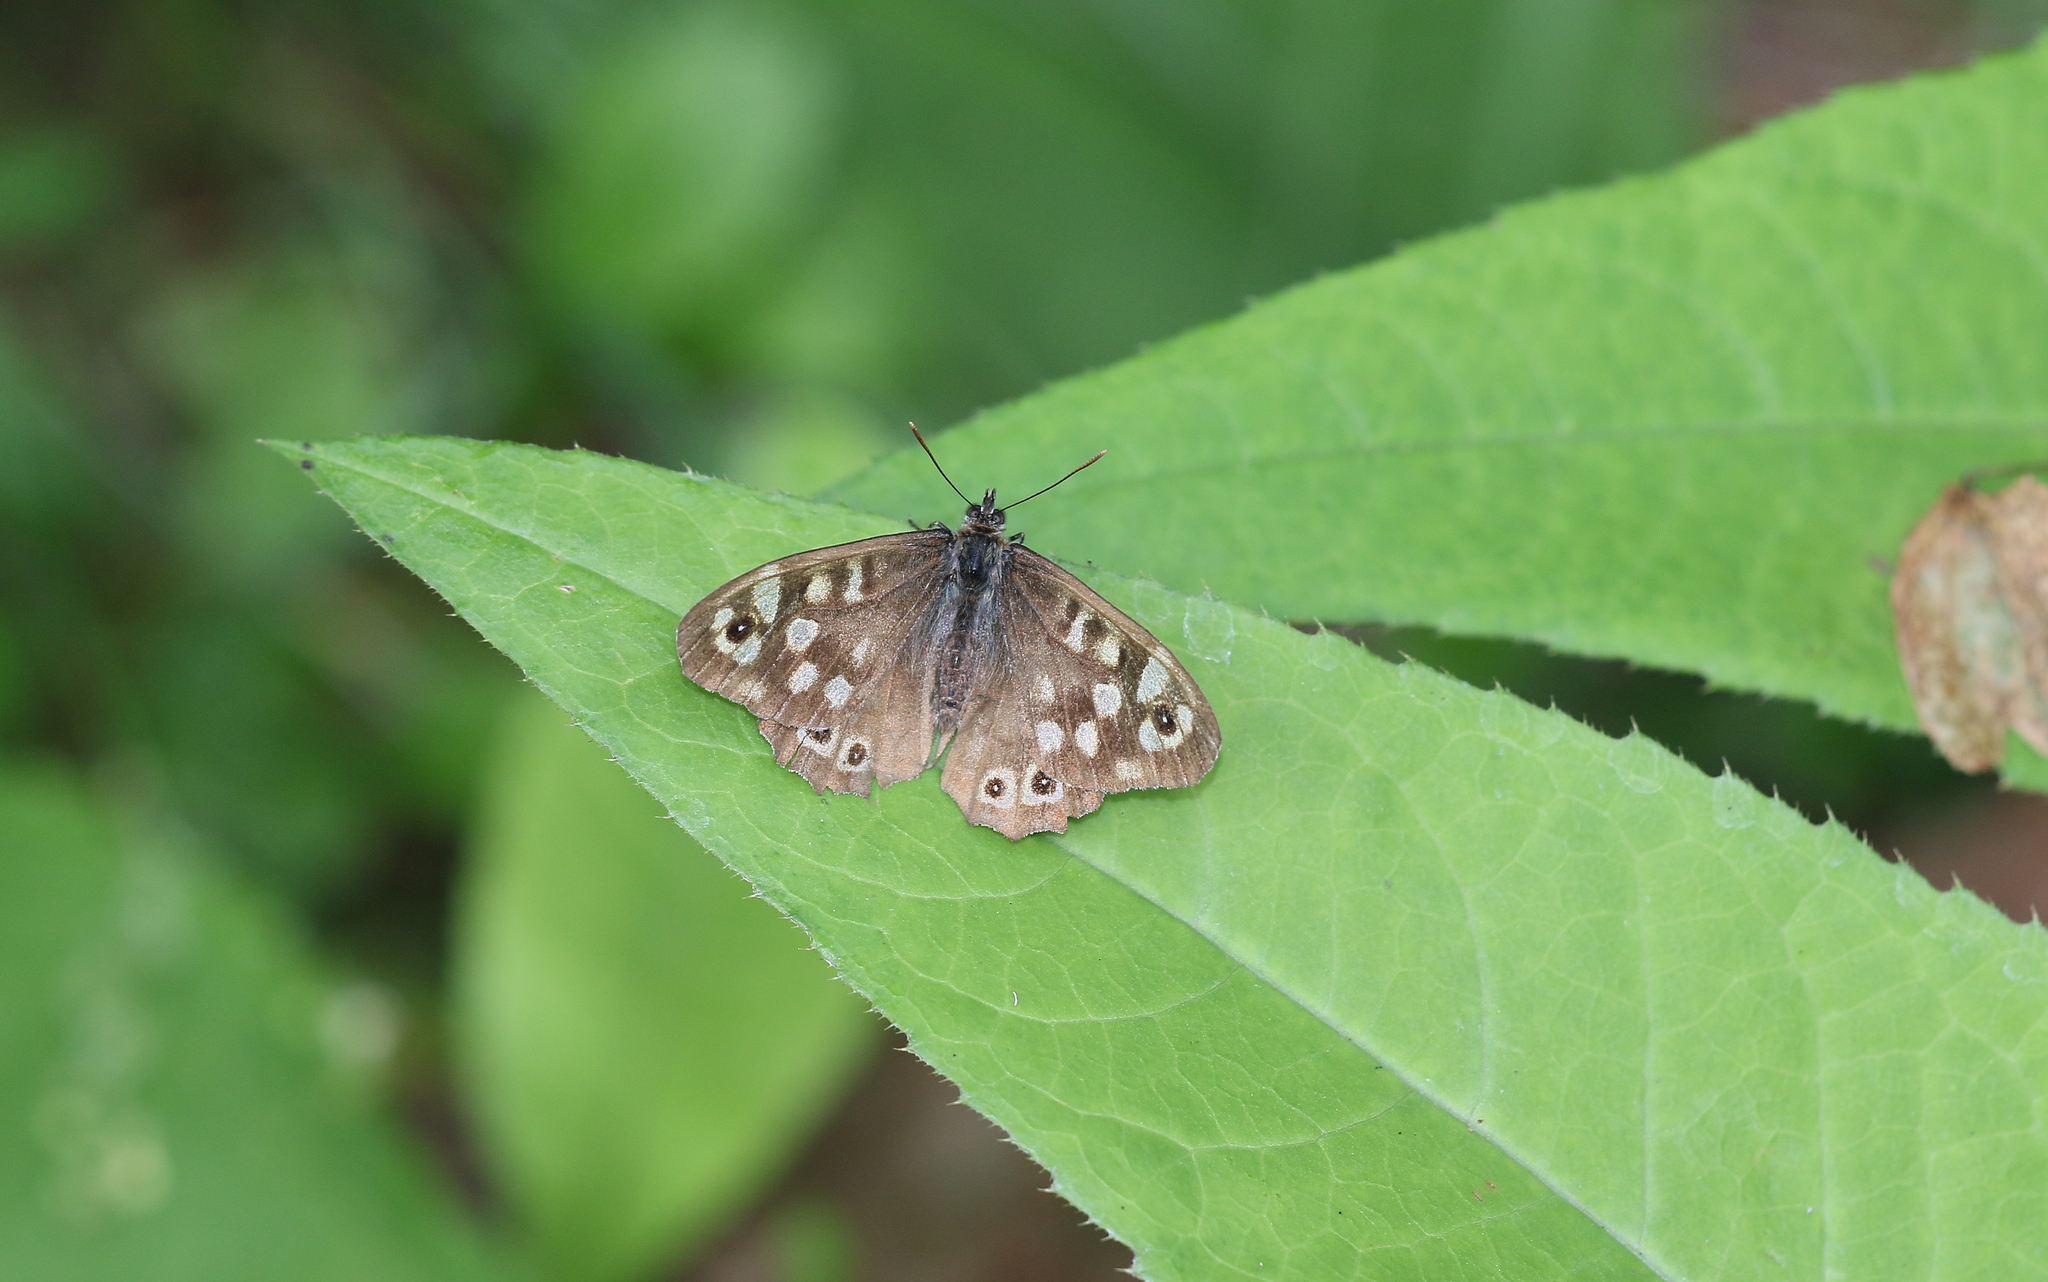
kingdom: Animalia
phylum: Arthropoda
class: Insecta
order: Lepidoptera
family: Nymphalidae
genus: Pararge
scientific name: Pararge aegeria
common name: Speckled wood
